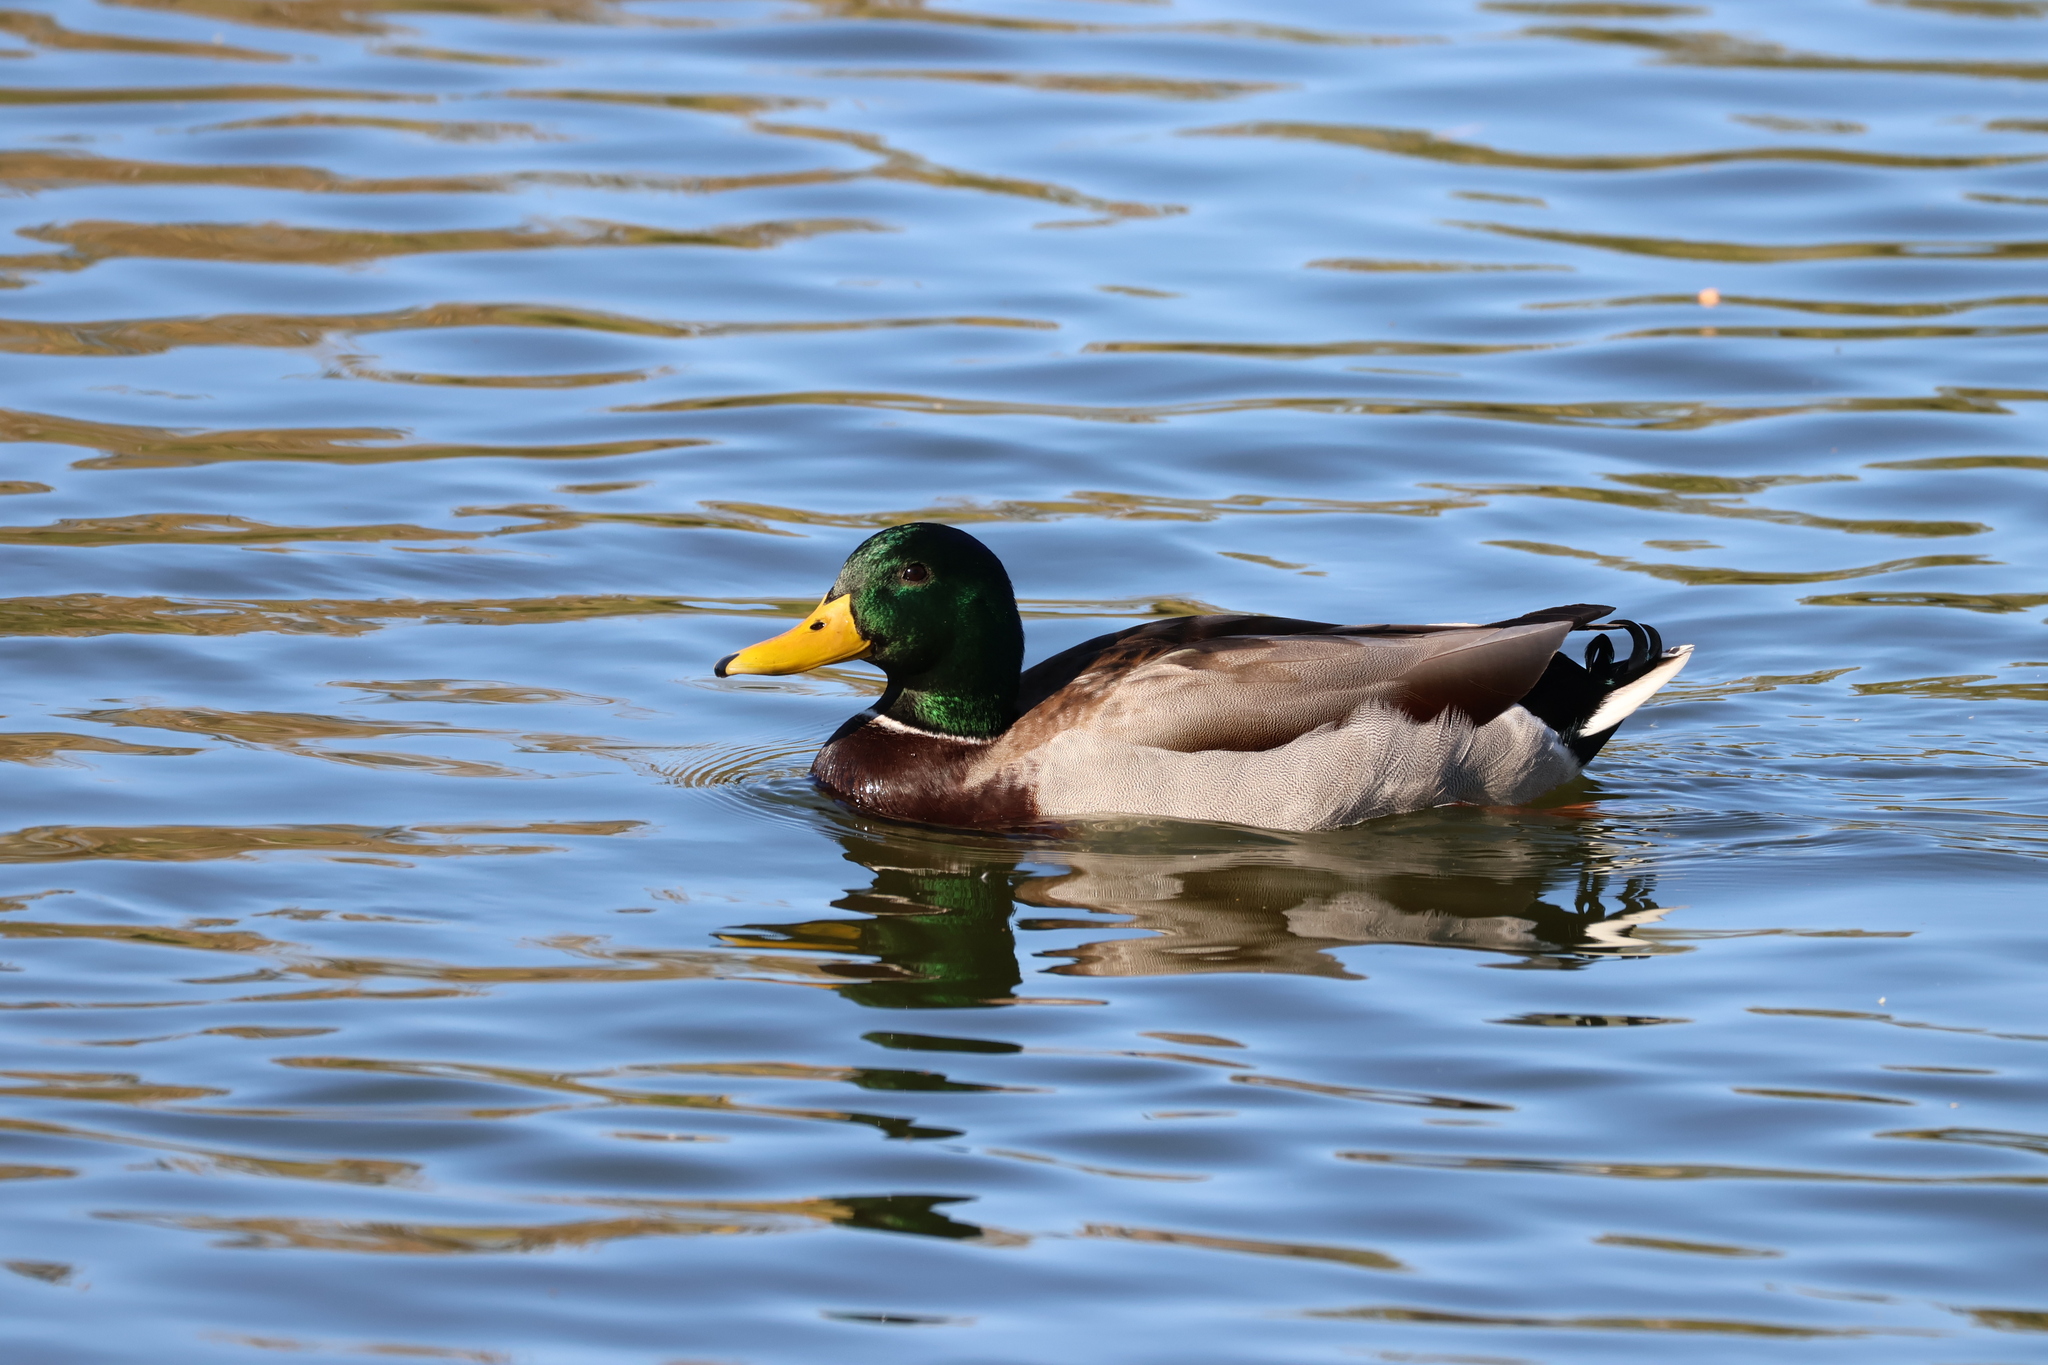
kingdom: Animalia
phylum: Chordata
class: Aves
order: Anseriformes
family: Anatidae
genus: Anas
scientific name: Anas platyrhynchos
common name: Mallard
